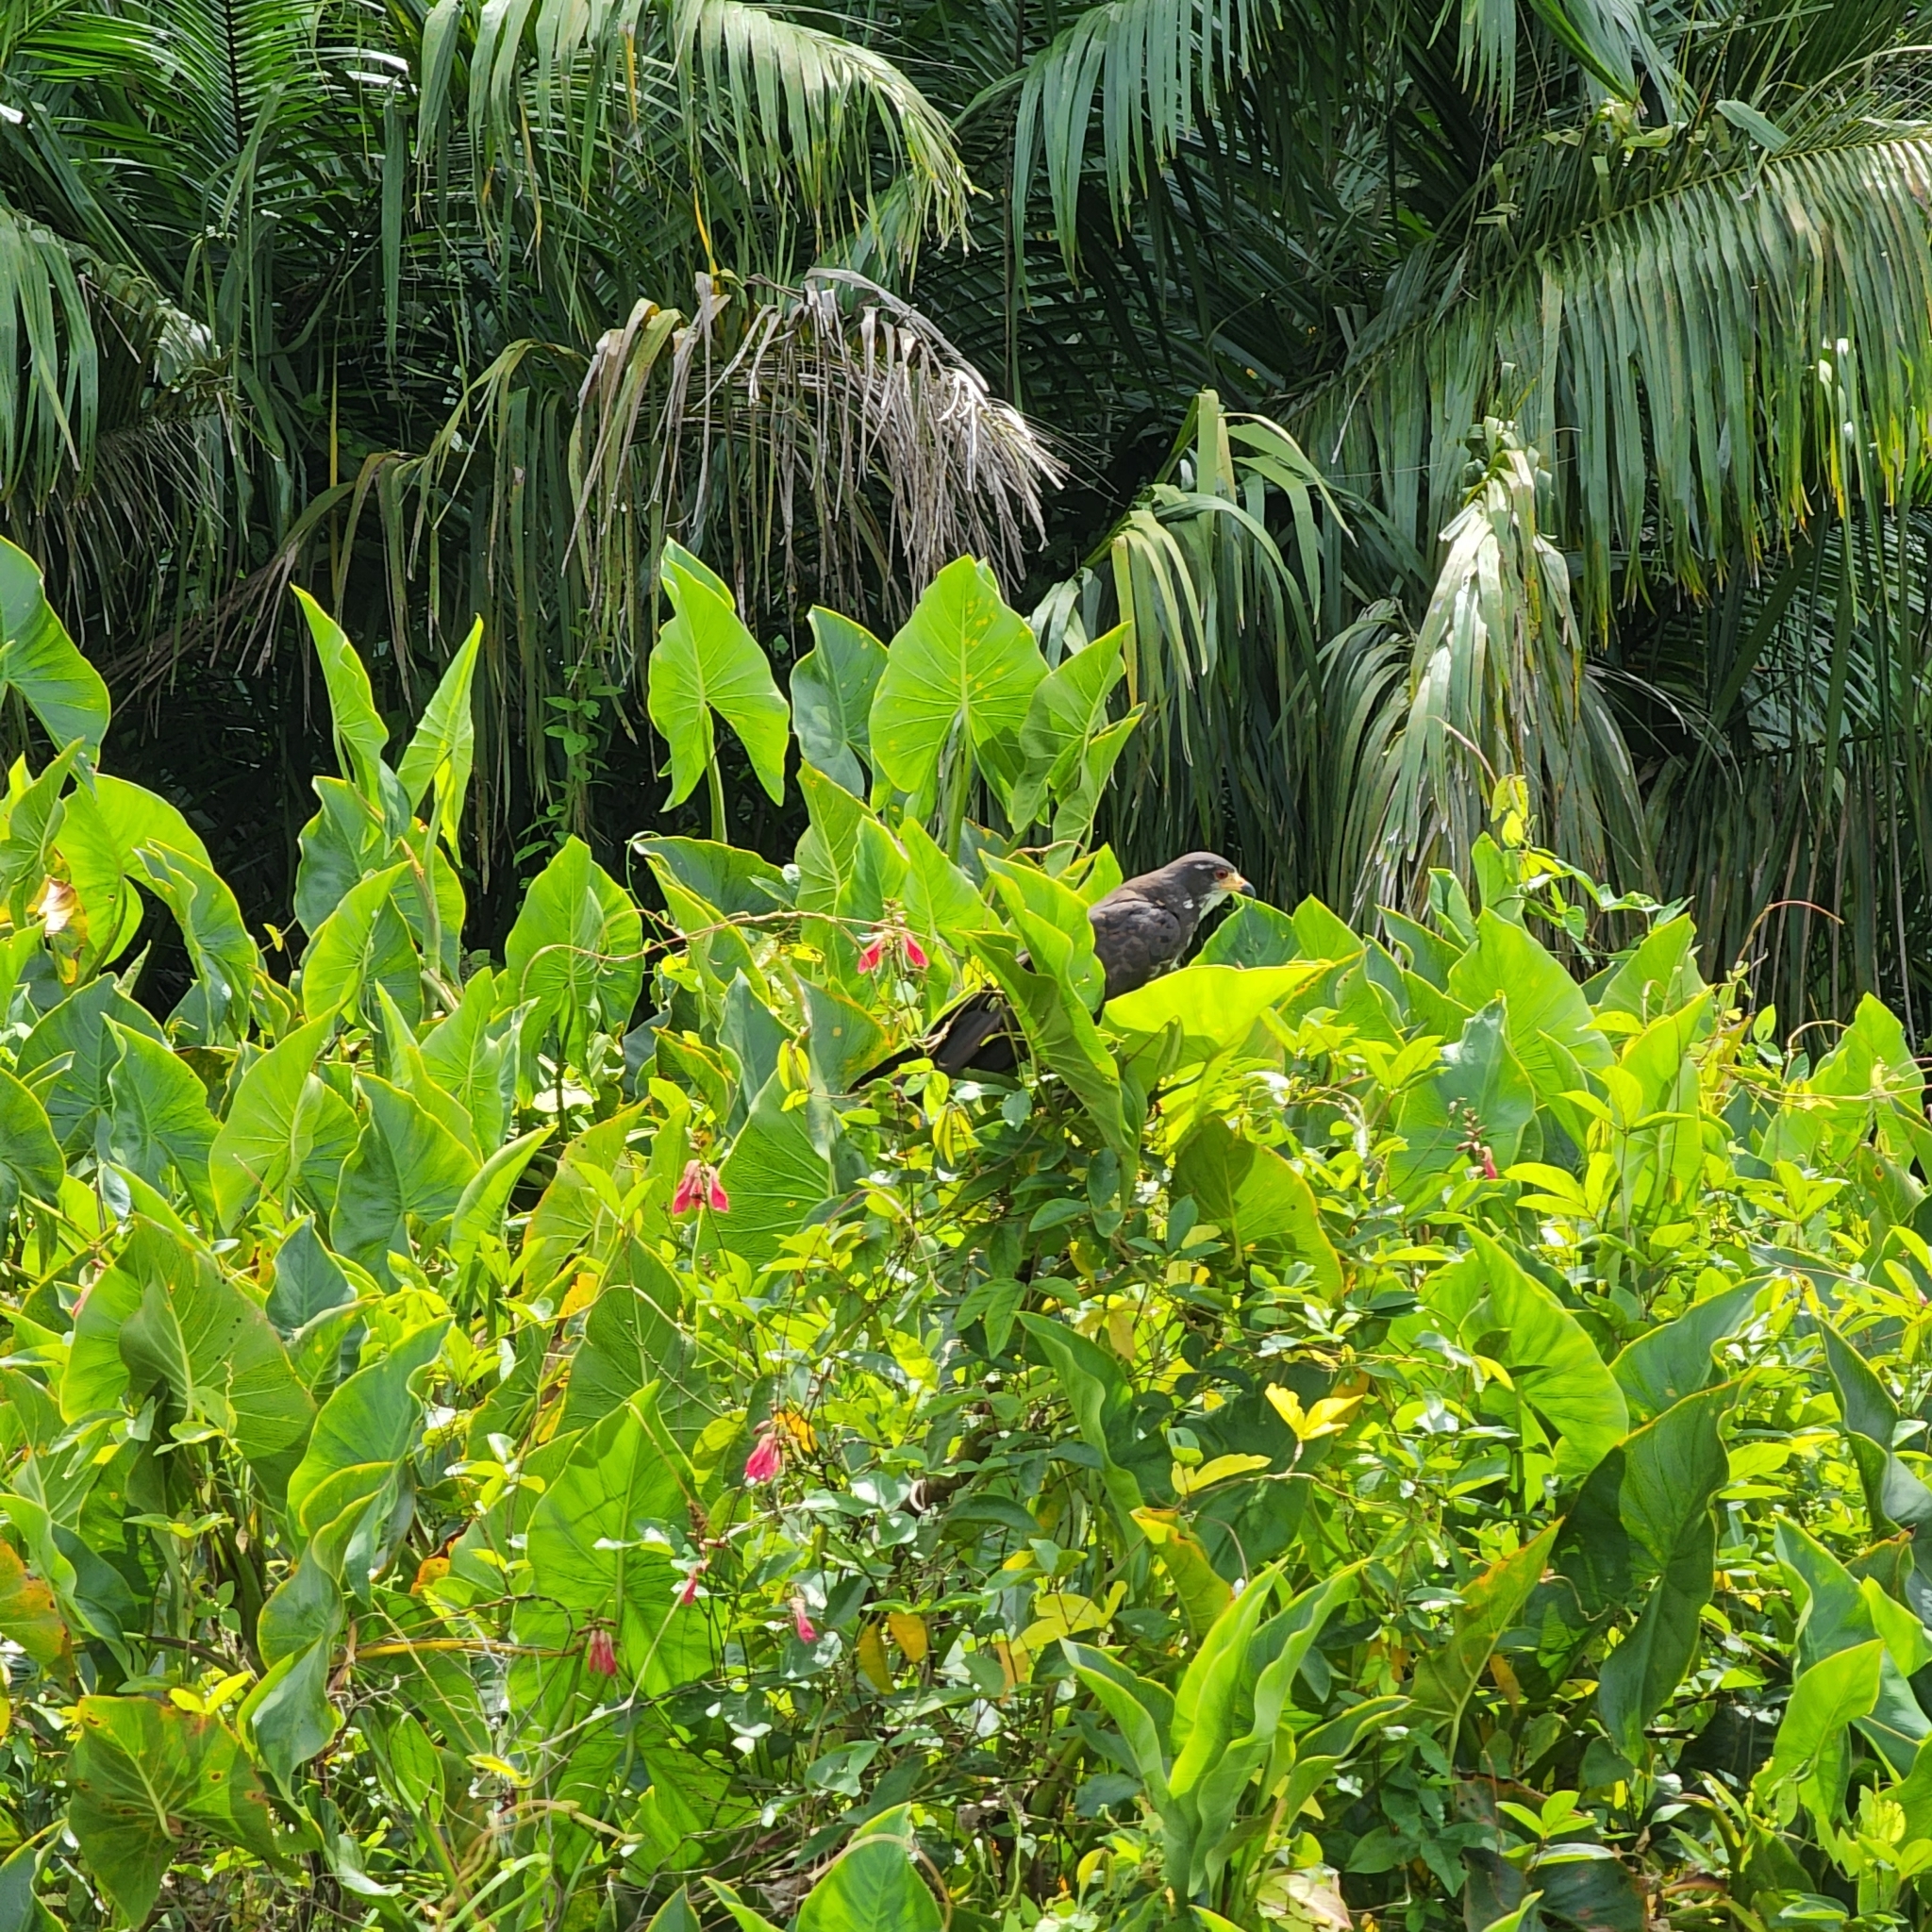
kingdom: Animalia
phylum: Chordata
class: Aves
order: Accipitriformes
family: Accipitridae
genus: Rostrhamus
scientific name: Rostrhamus sociabilis
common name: Snail kite
